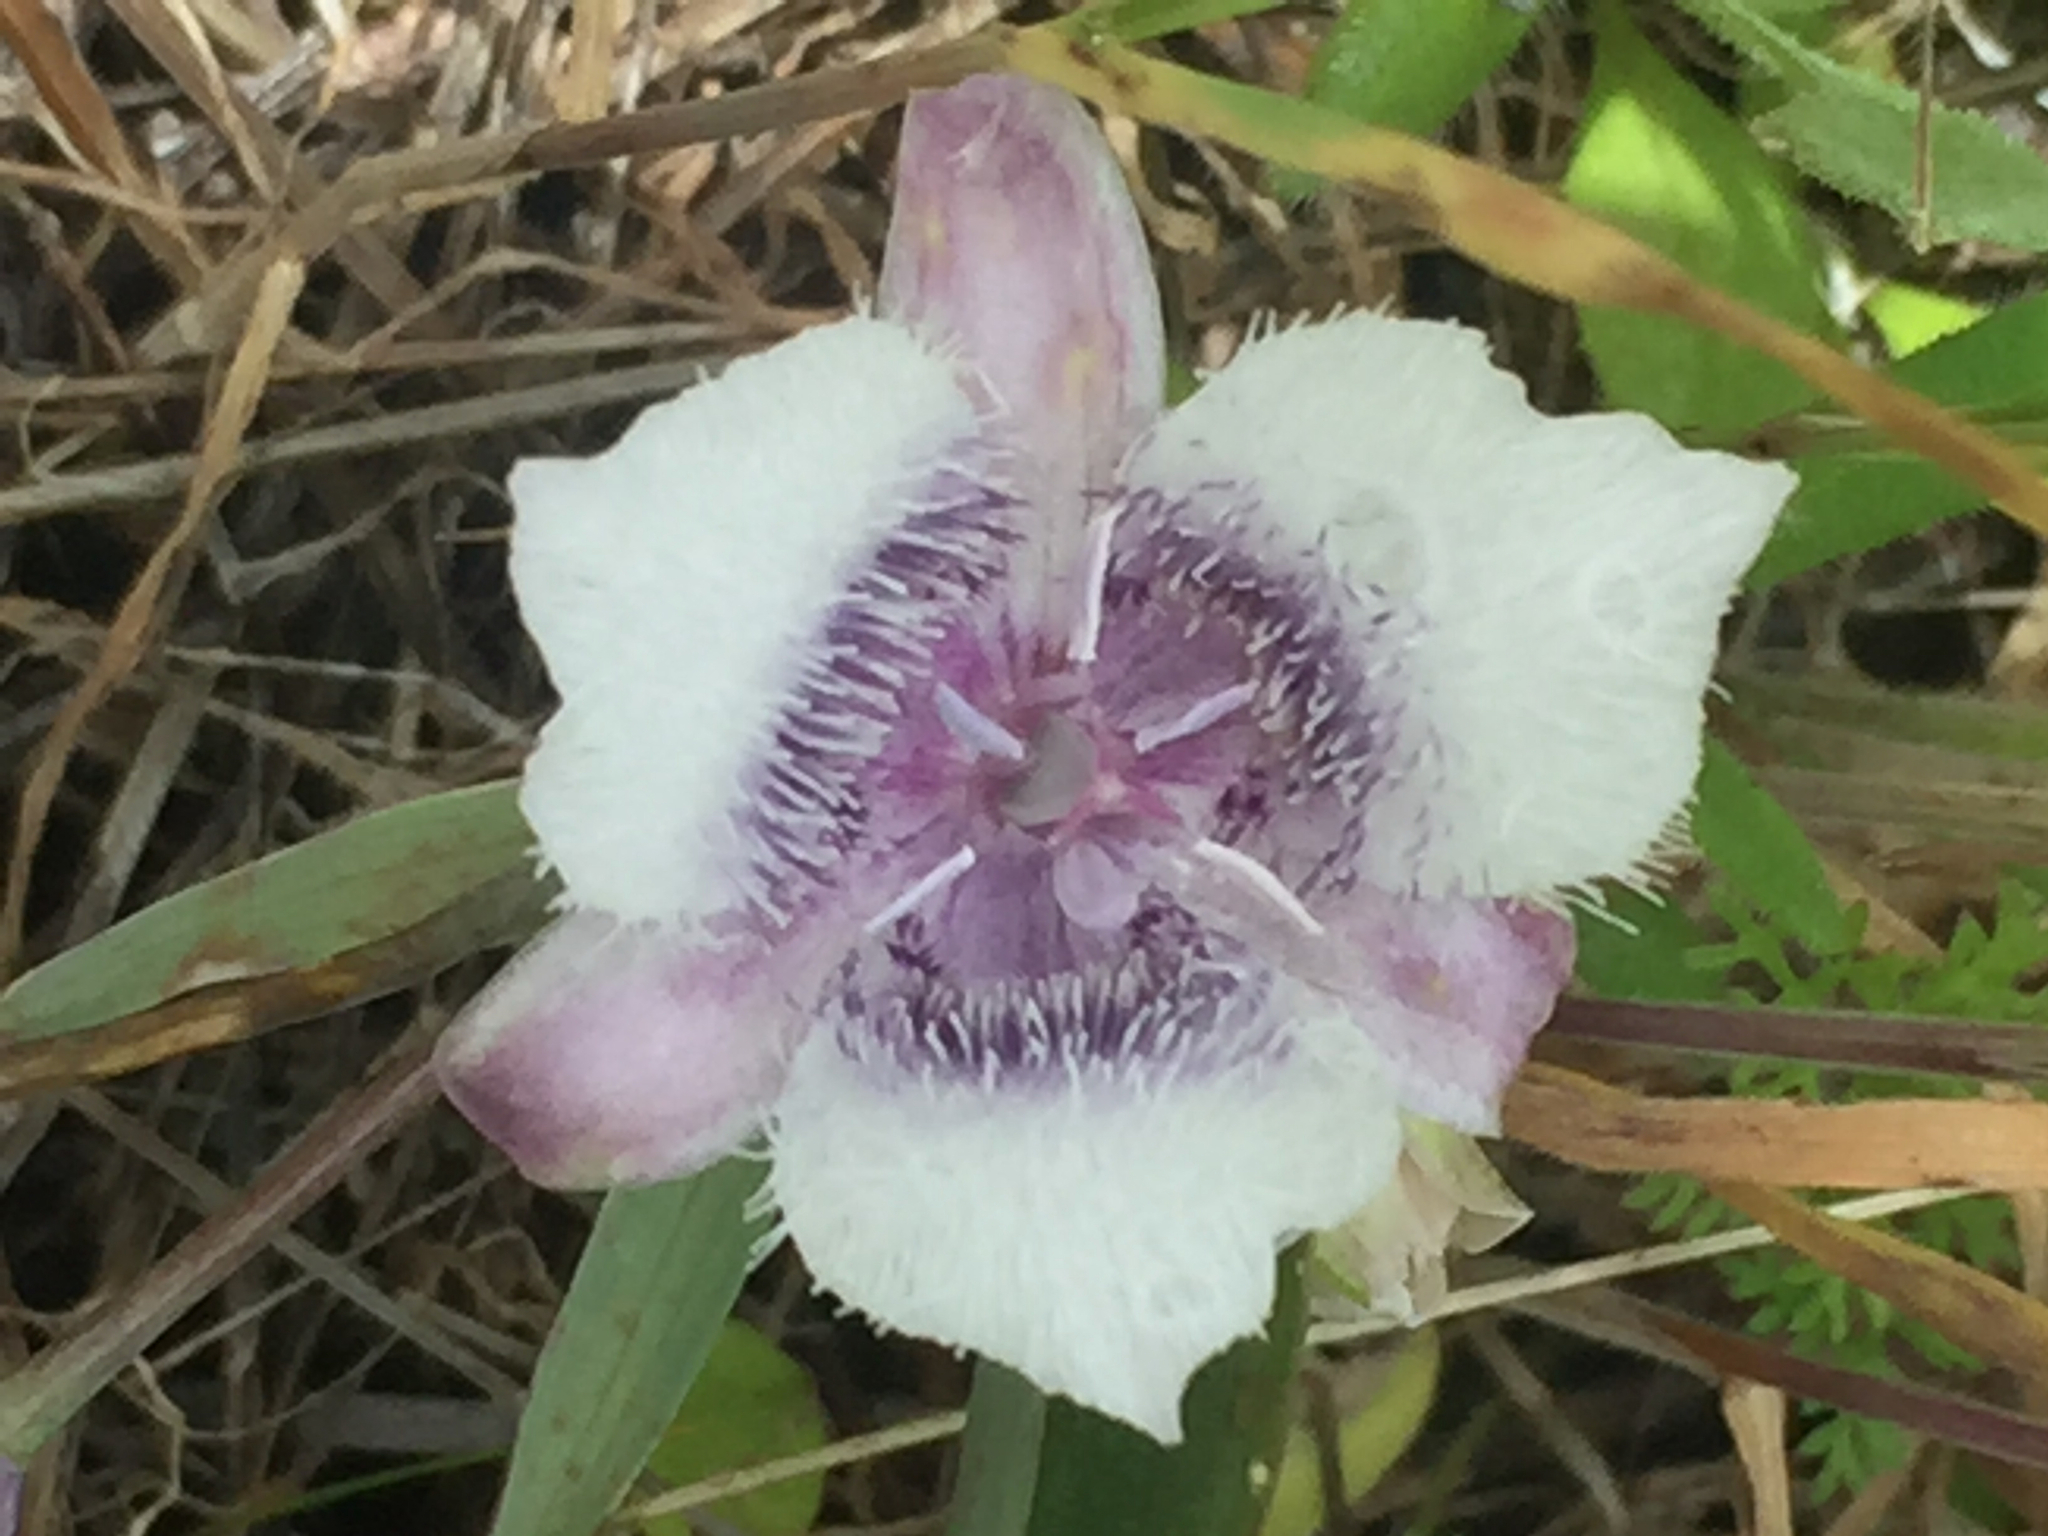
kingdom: Plantae
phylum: Tracheophyta
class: Liliopsida
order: Liliales
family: Liliaceae
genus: Calochortus
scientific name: Calochortus tolmiei
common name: Pussy-ears
